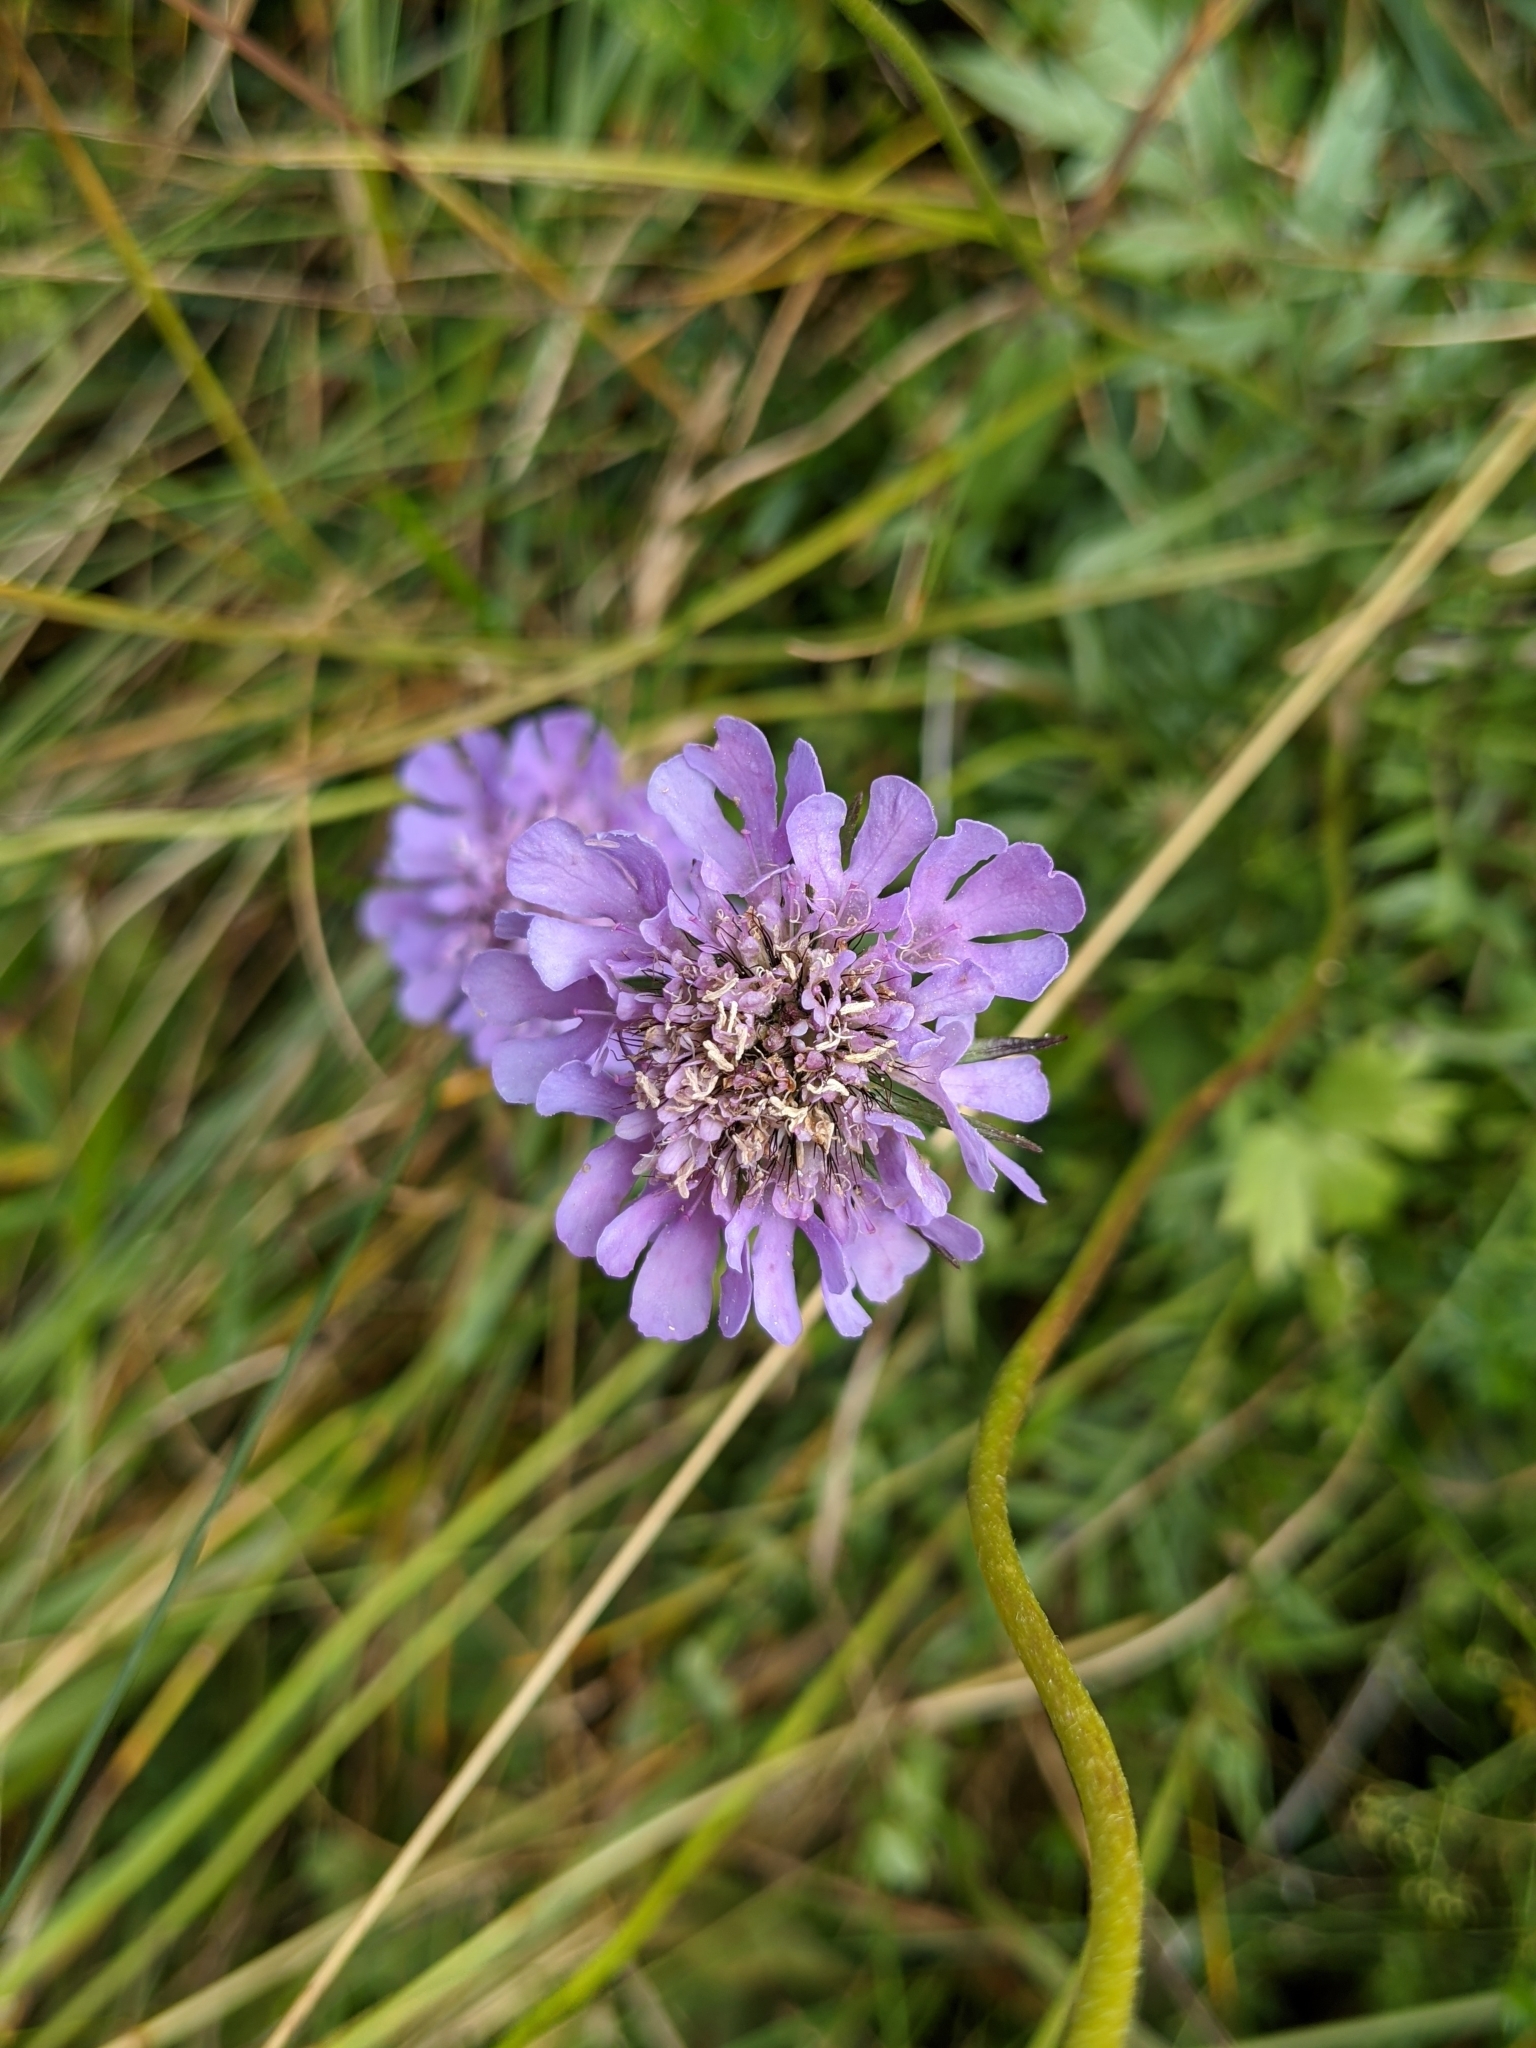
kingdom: Plantae
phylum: Tracheophyta
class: Magnoliopsida
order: Dipsacales
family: Caprifoliaceae
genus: Scabiosa
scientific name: Scabiosa lucida
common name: Shining scabious
